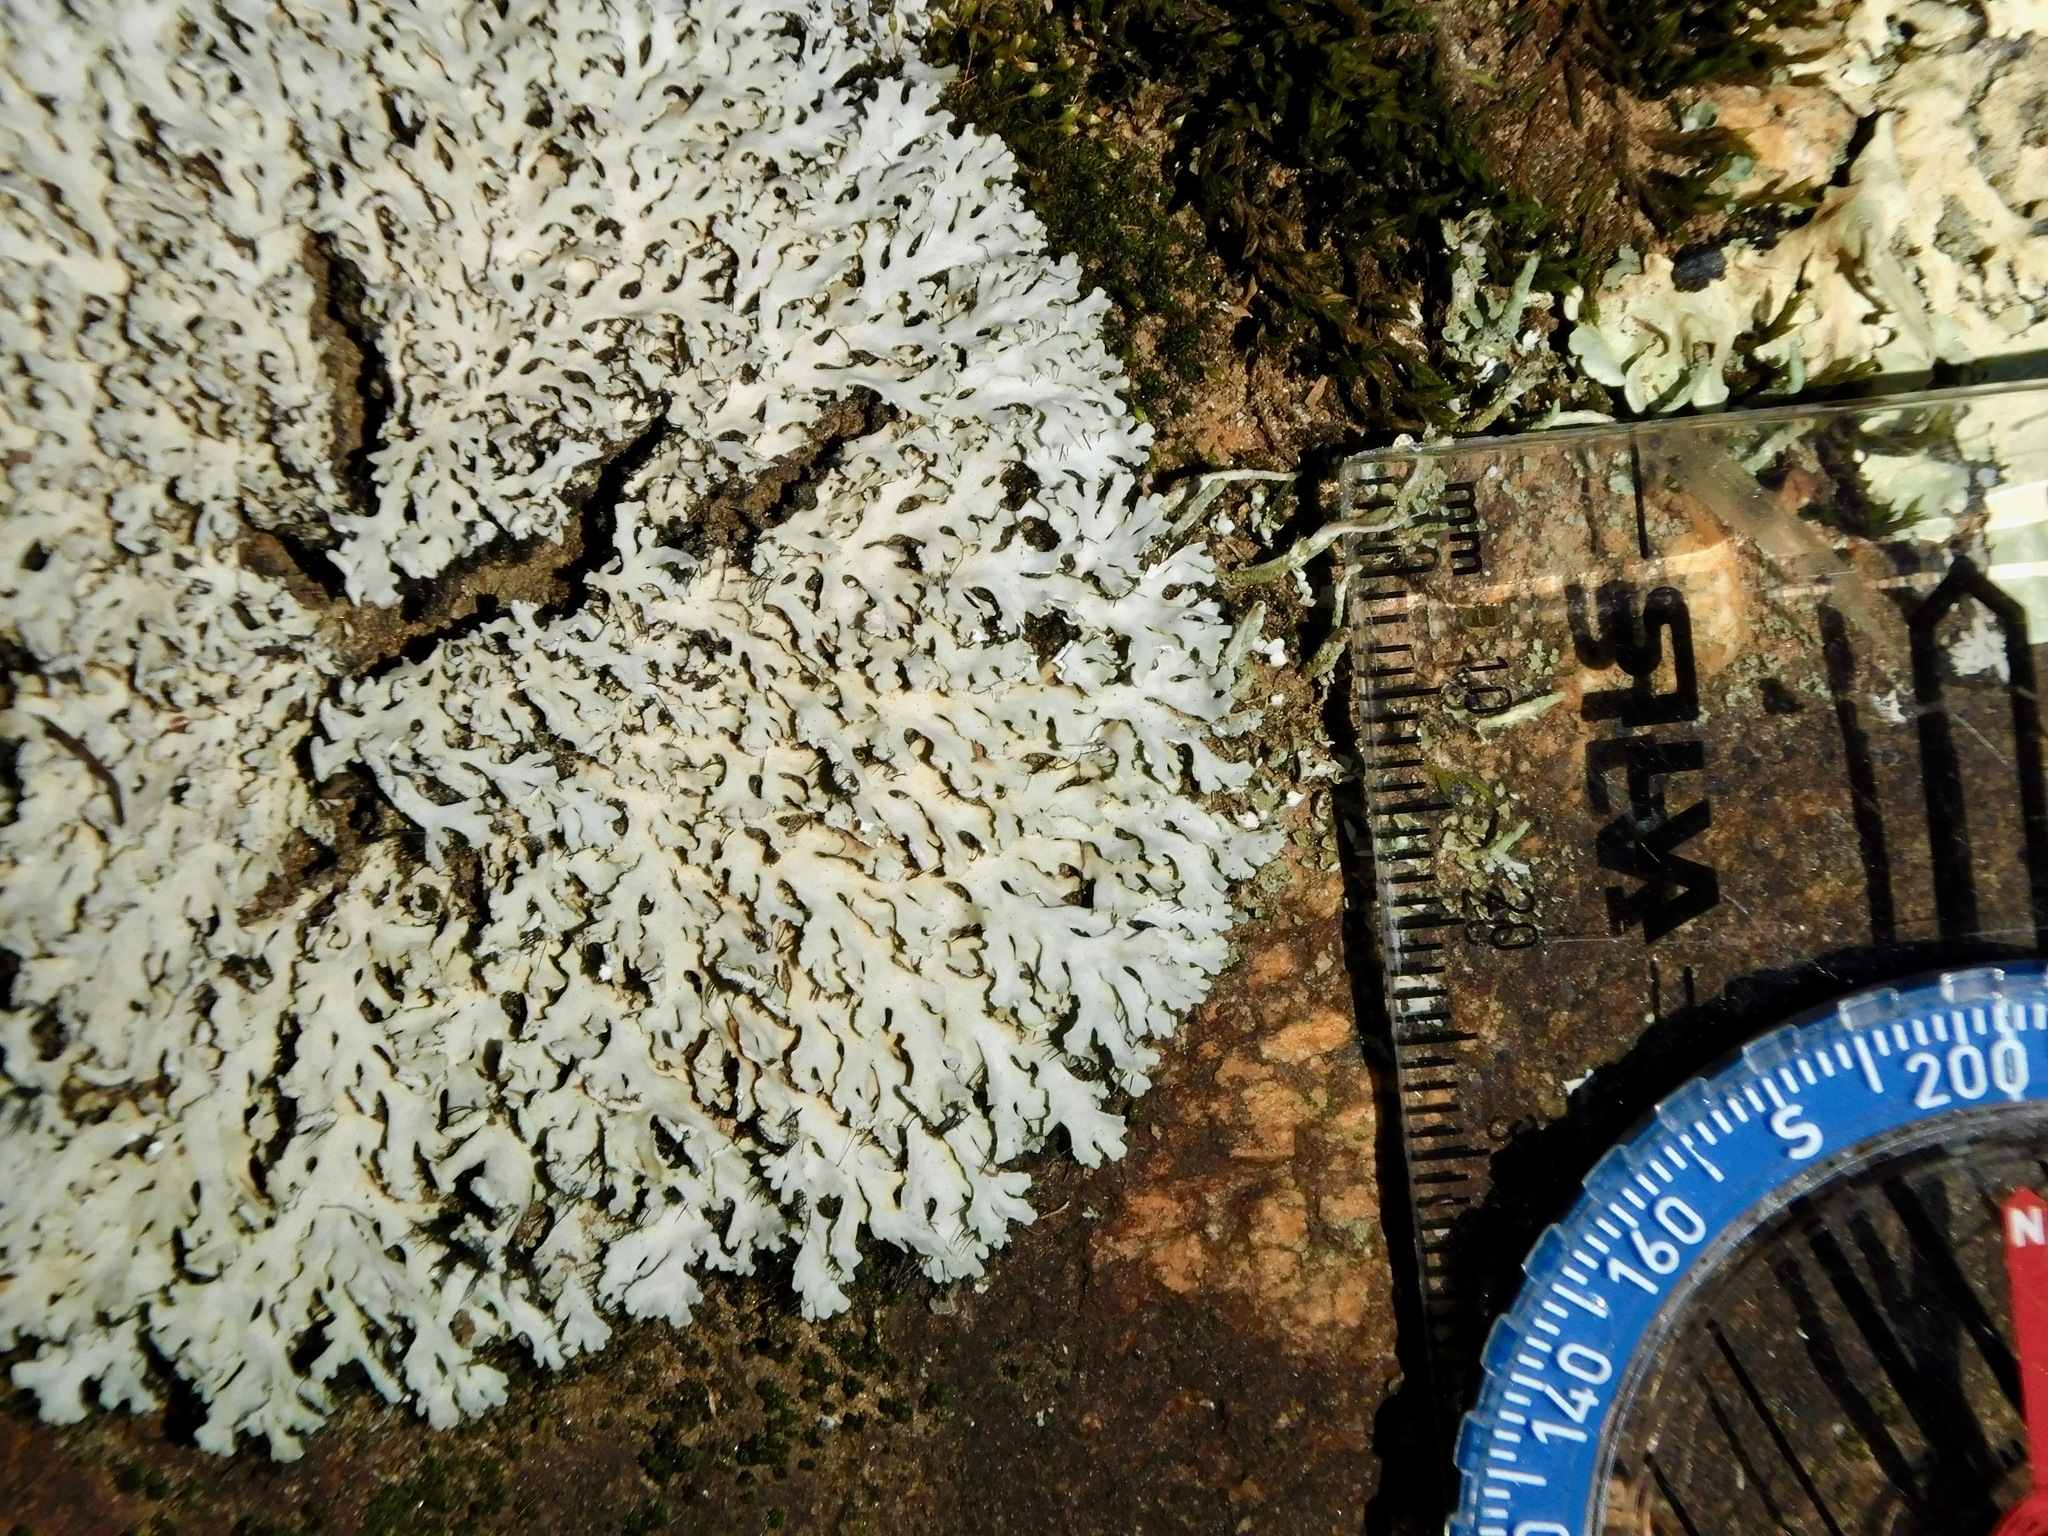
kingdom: Fungi
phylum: Ascomycota
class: Lecanoromycetes
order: Caliciales
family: Physciaceae
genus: Heterodermia
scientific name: Heterodermia speciosa
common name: Powdered fringe lichen
